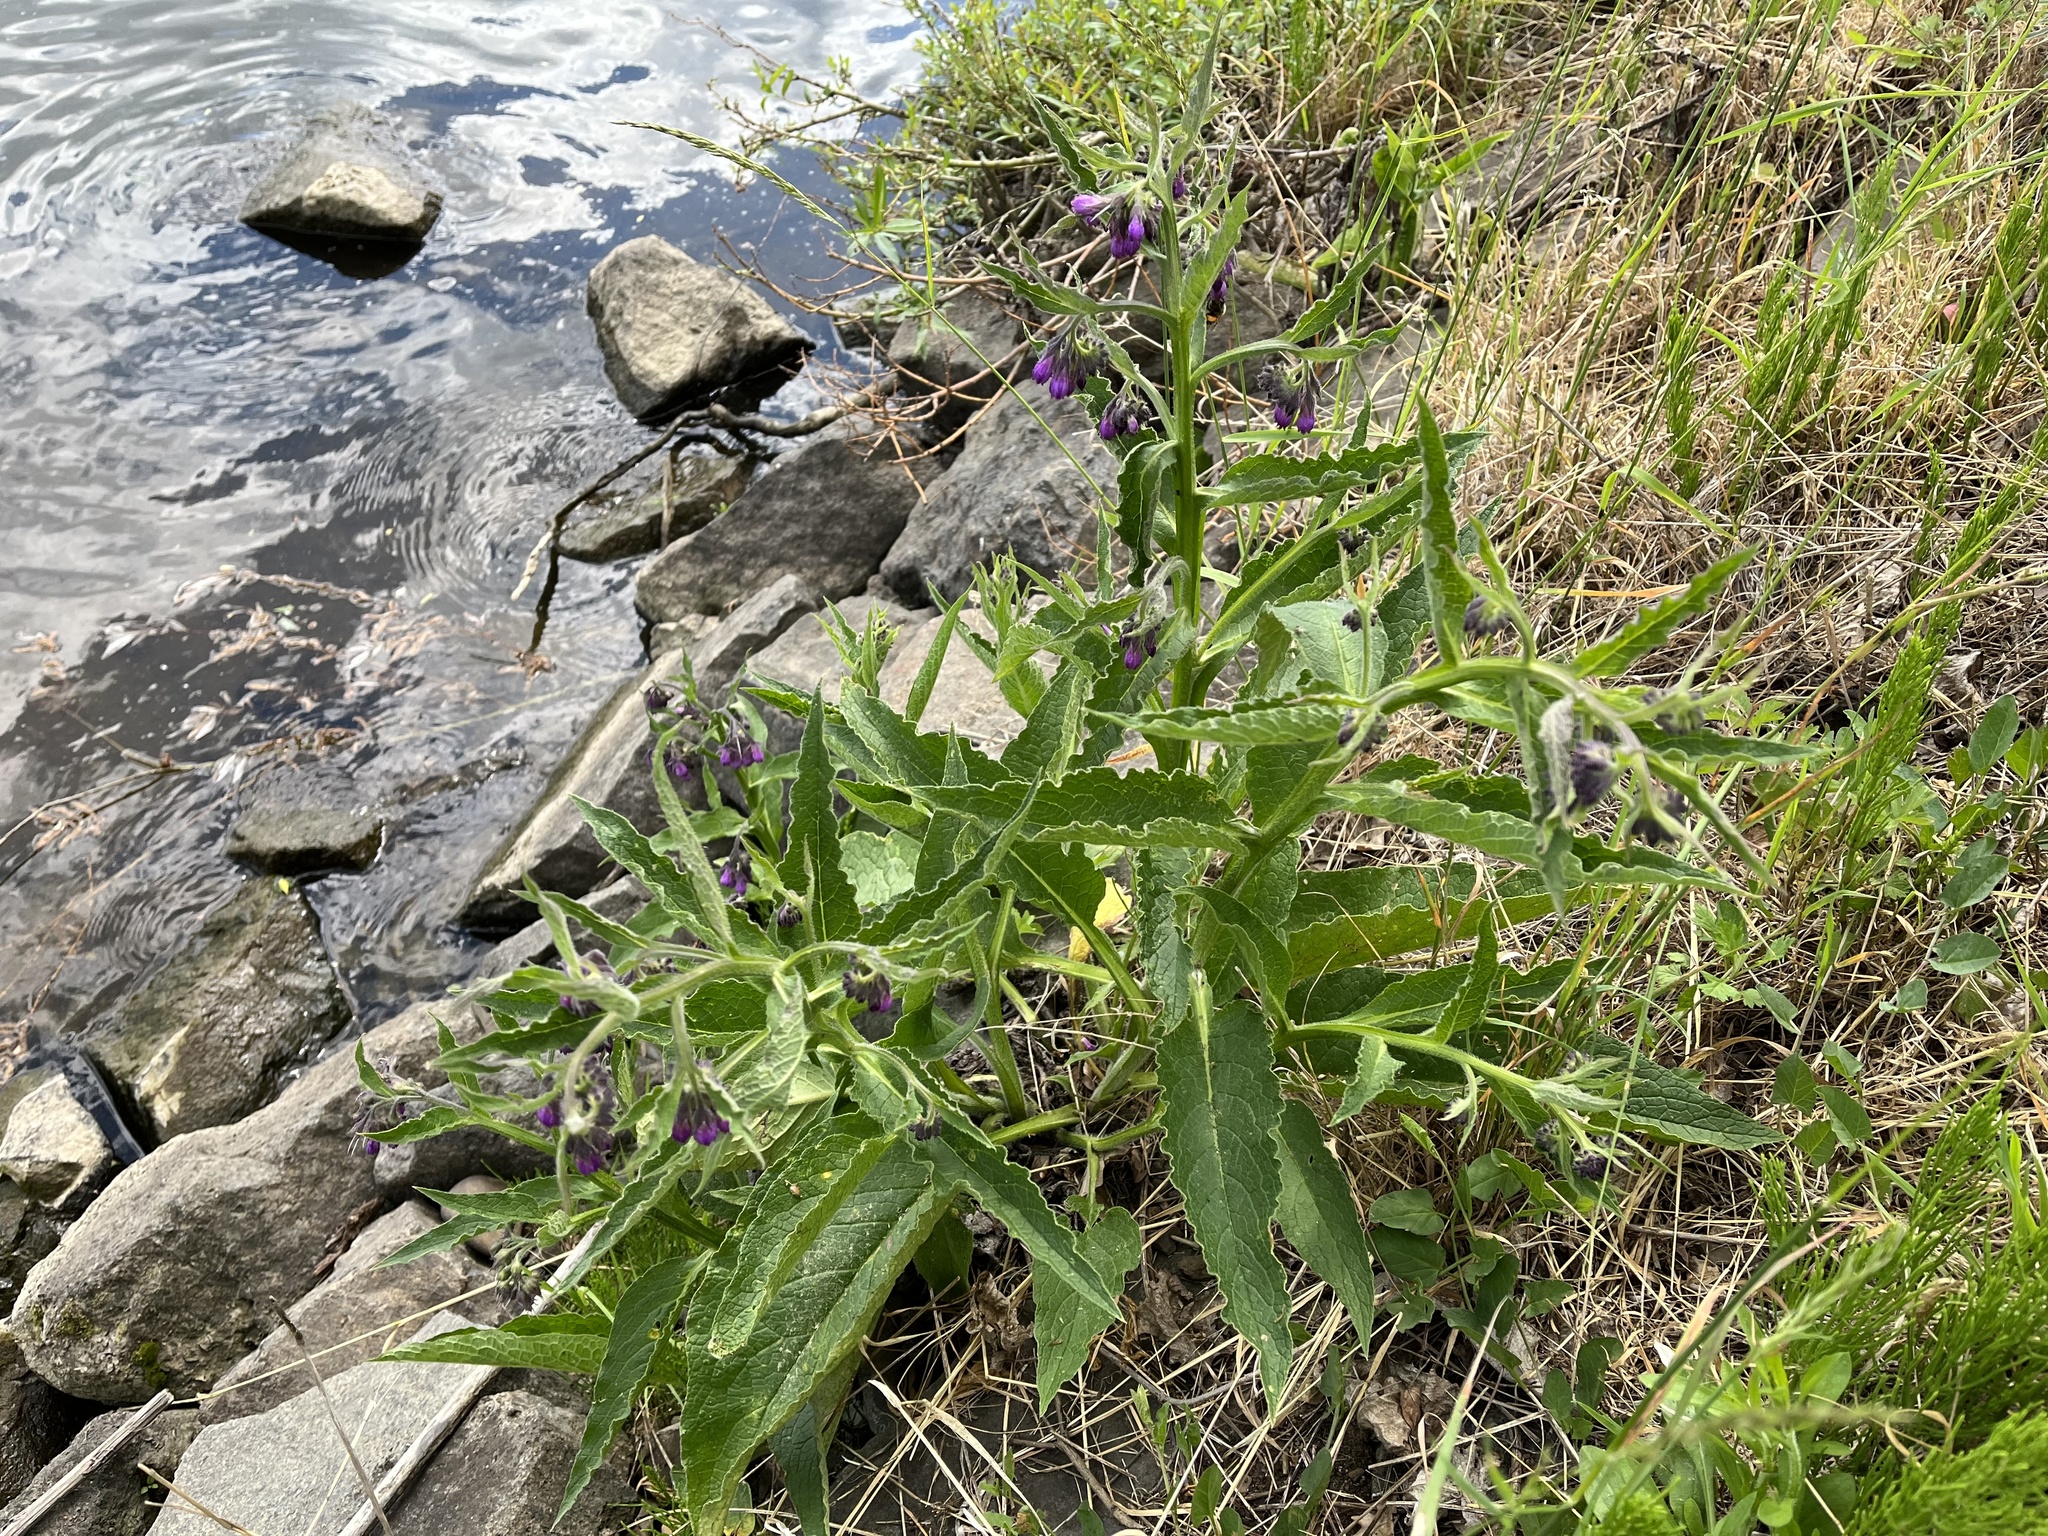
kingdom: Plantae
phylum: Tracheophyta
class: Magnoliopsida
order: Boraginales
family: Boraginaceae
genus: Symphytum
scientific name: Symphytum officinale
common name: Common comfrey
